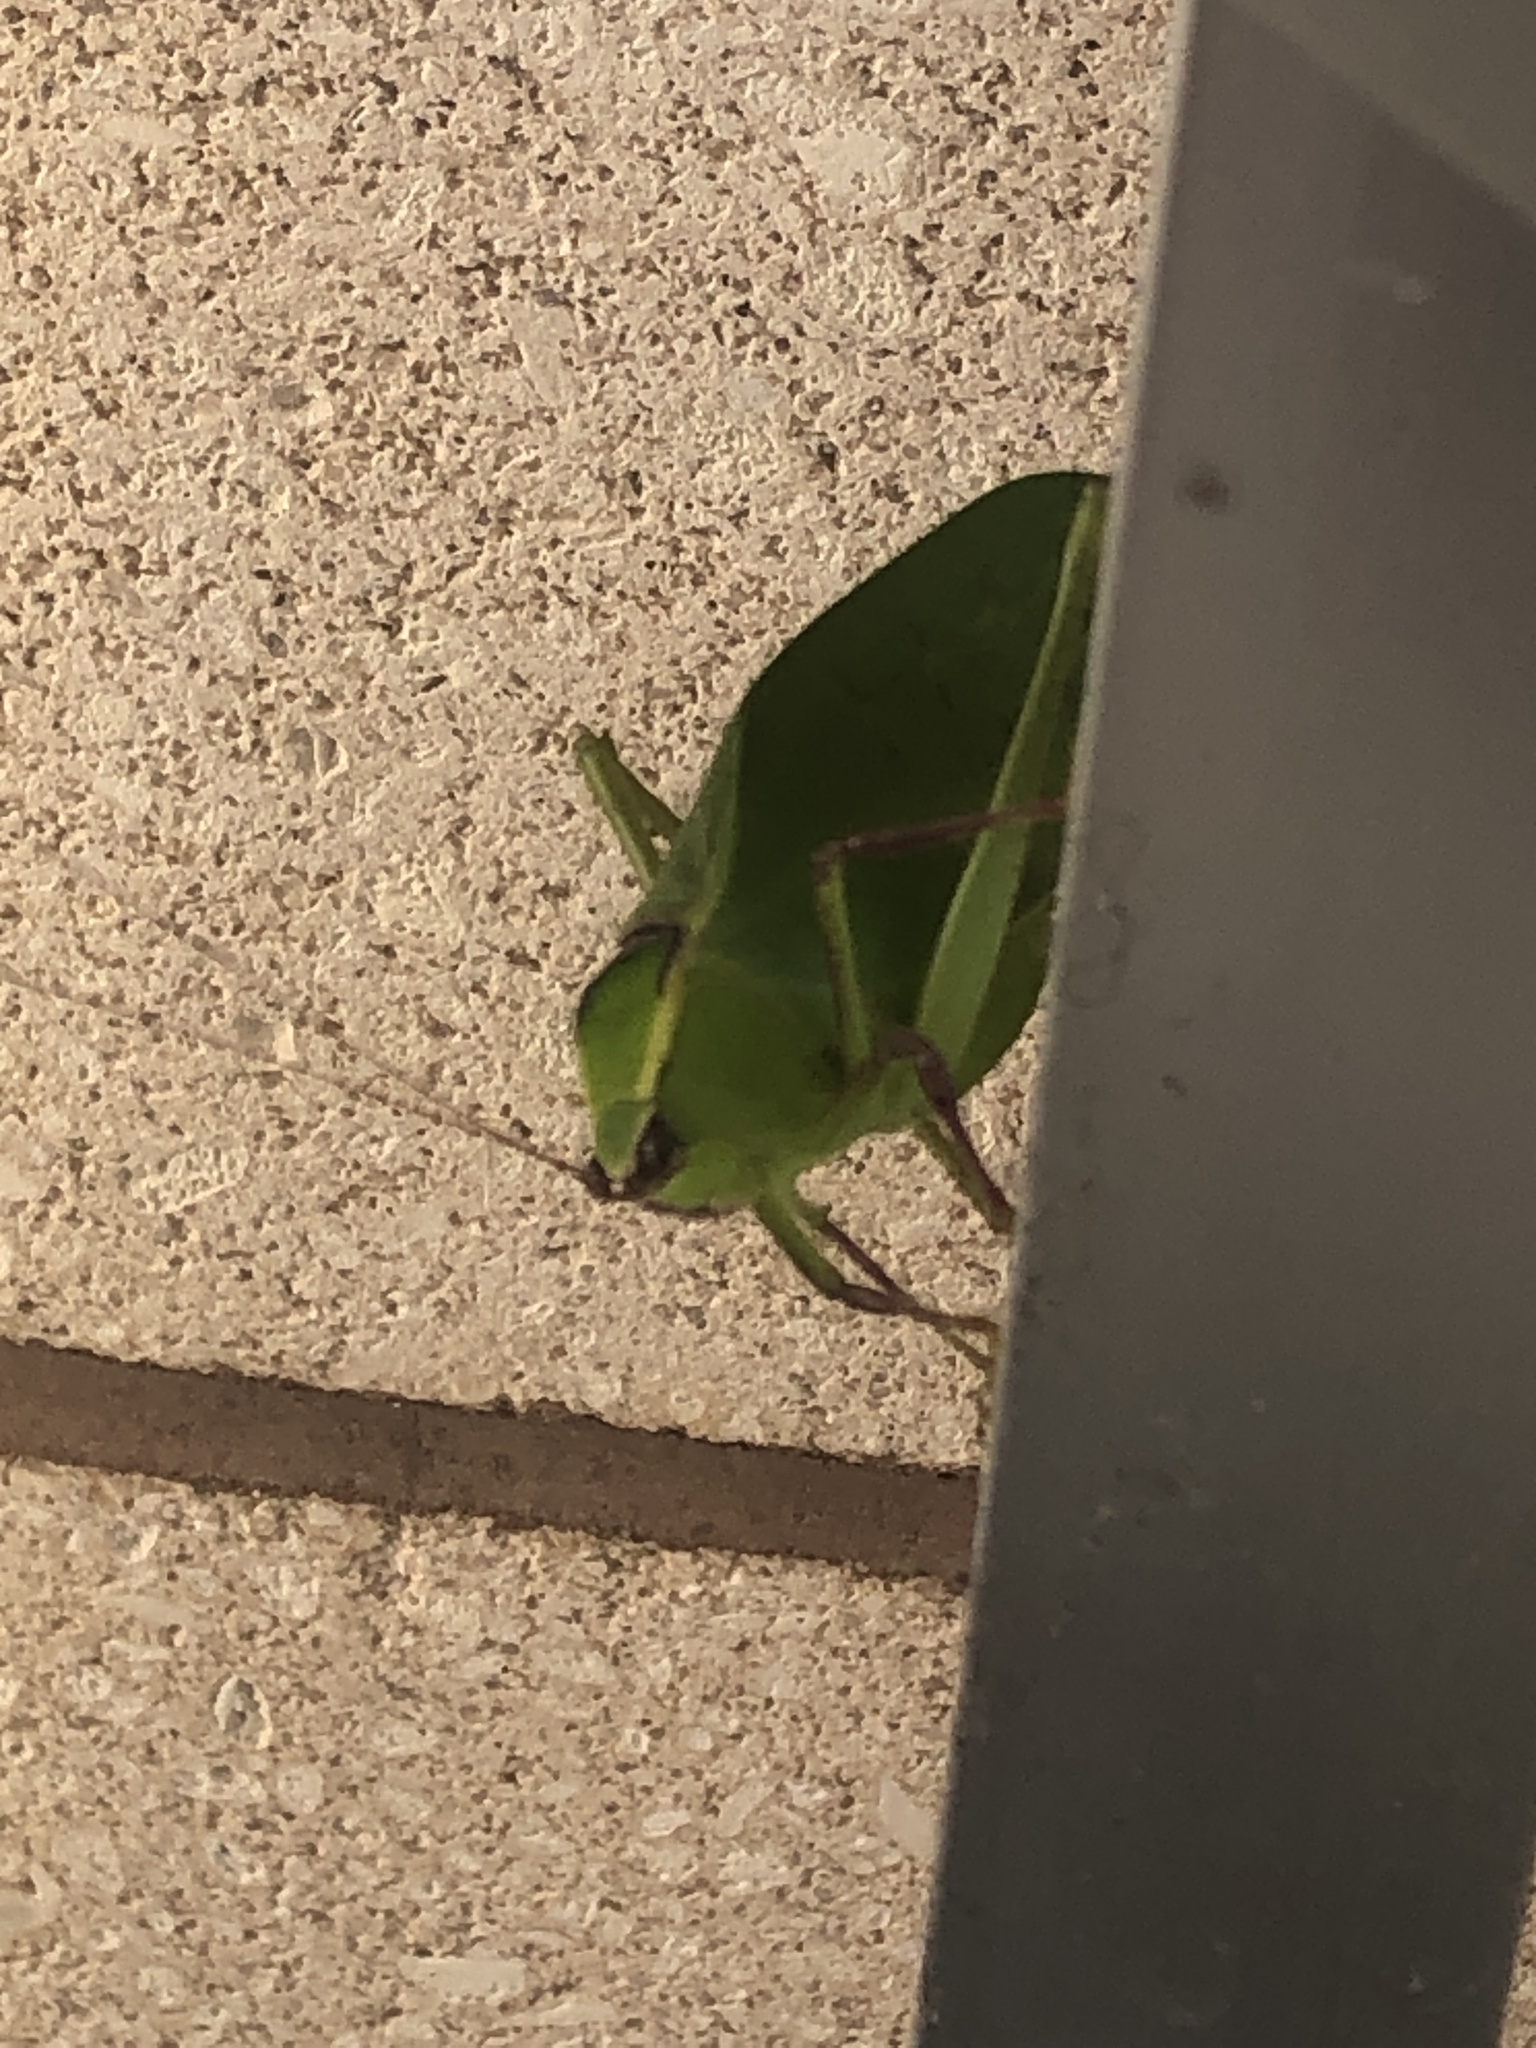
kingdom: Animalia
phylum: Arthropoda
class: Insecta
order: Orthoptera
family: Tettigoniidae
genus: Stilpnochlora
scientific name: Stilpnochlora couloniana
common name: Giant katydid
